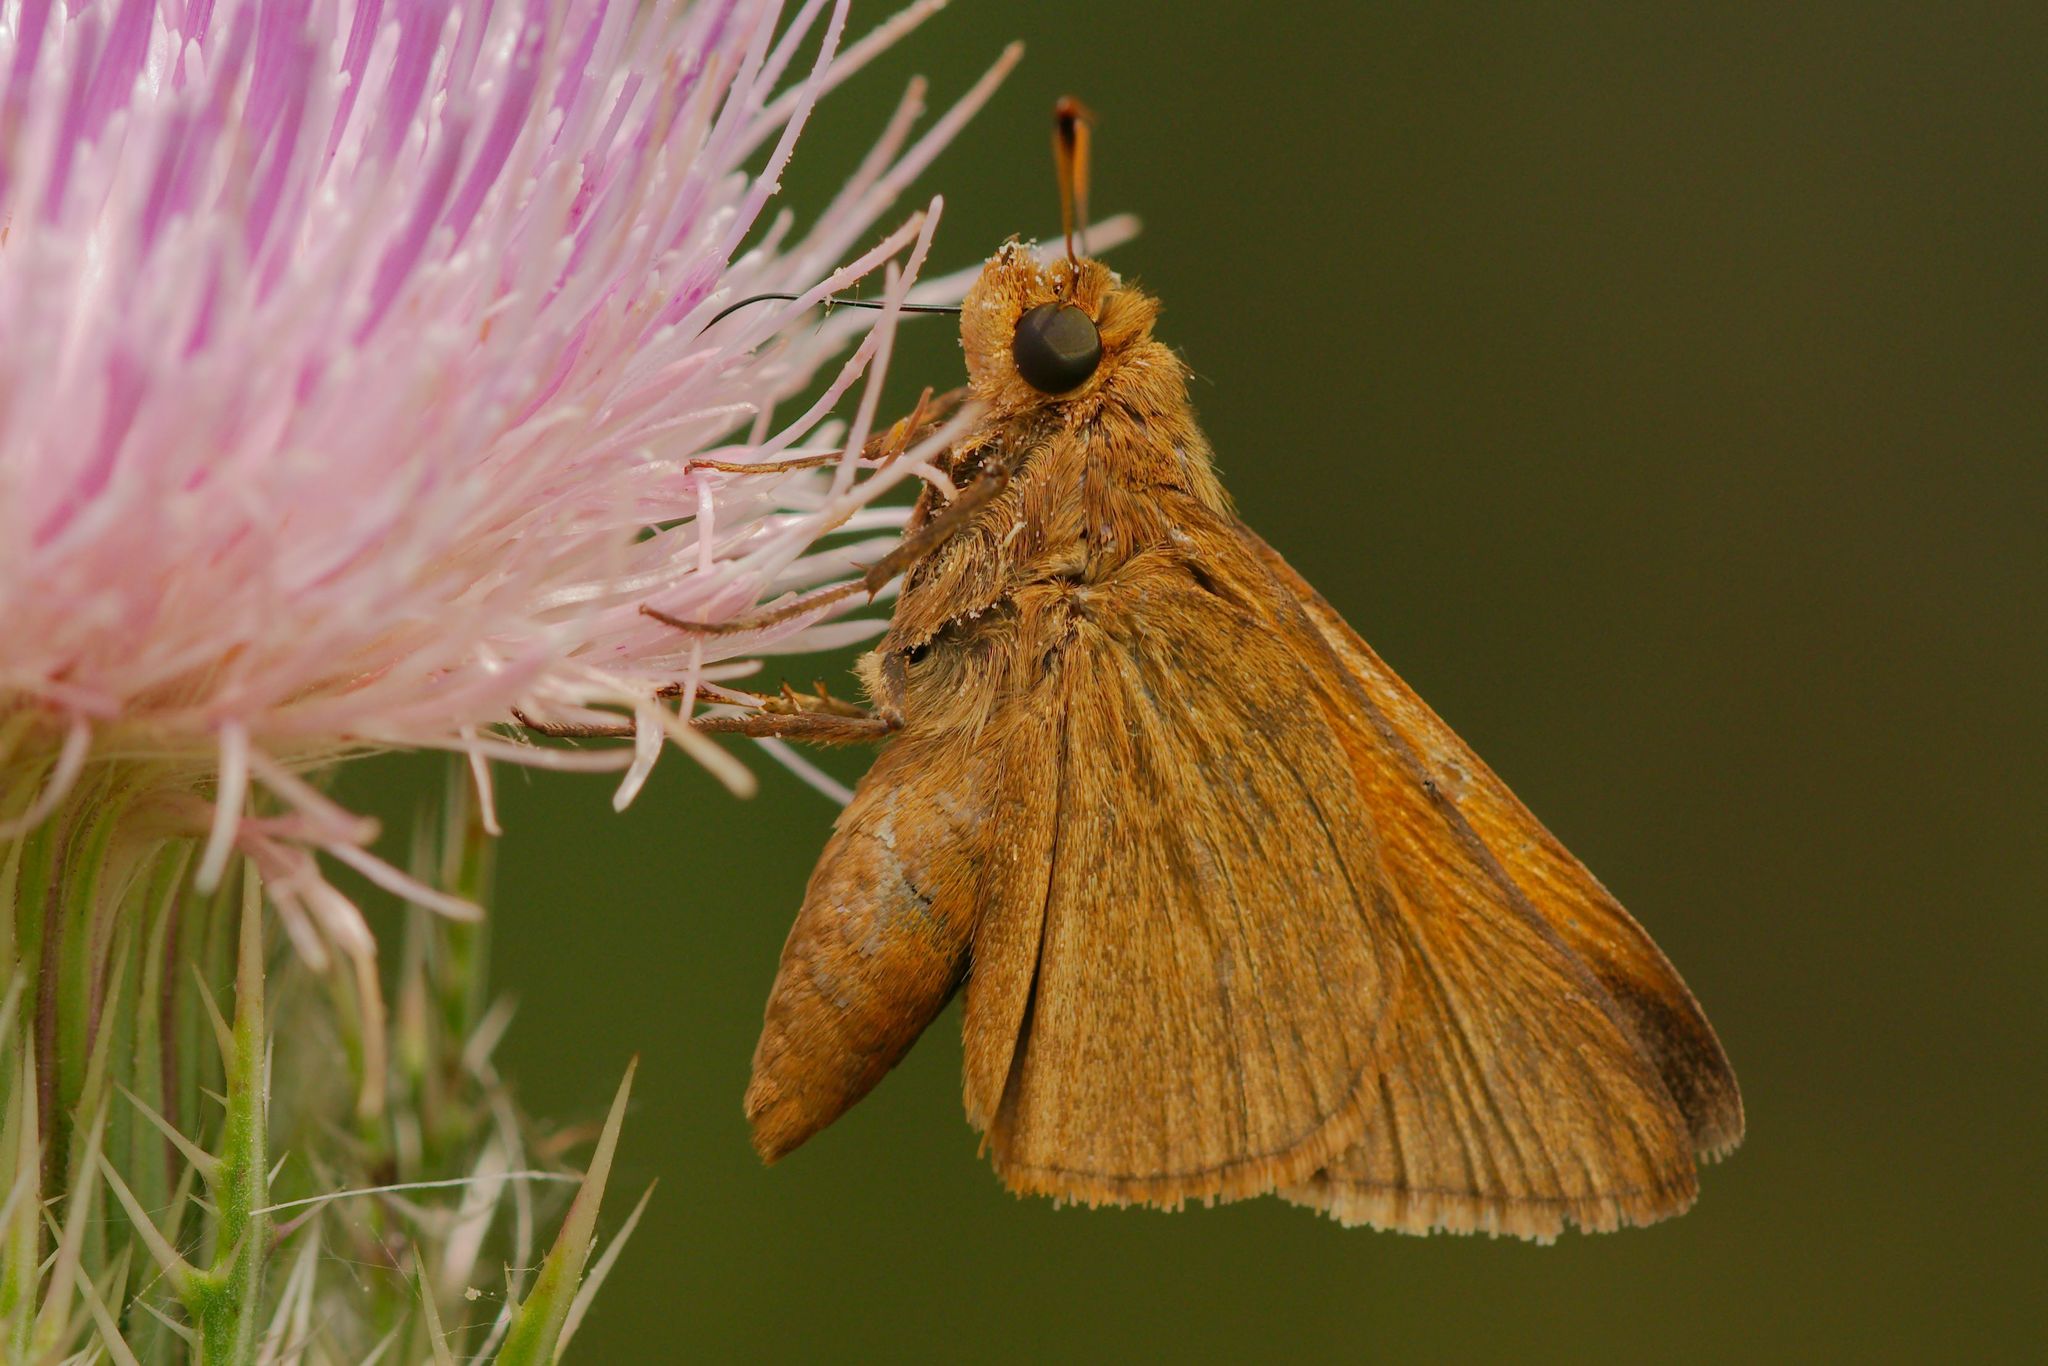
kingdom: Animalia
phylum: Arthropoda
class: Insecta
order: Lepidoptera
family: Hesperiidae
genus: Euphyes
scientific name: Euphyes pilatka
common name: Palatka skipper
